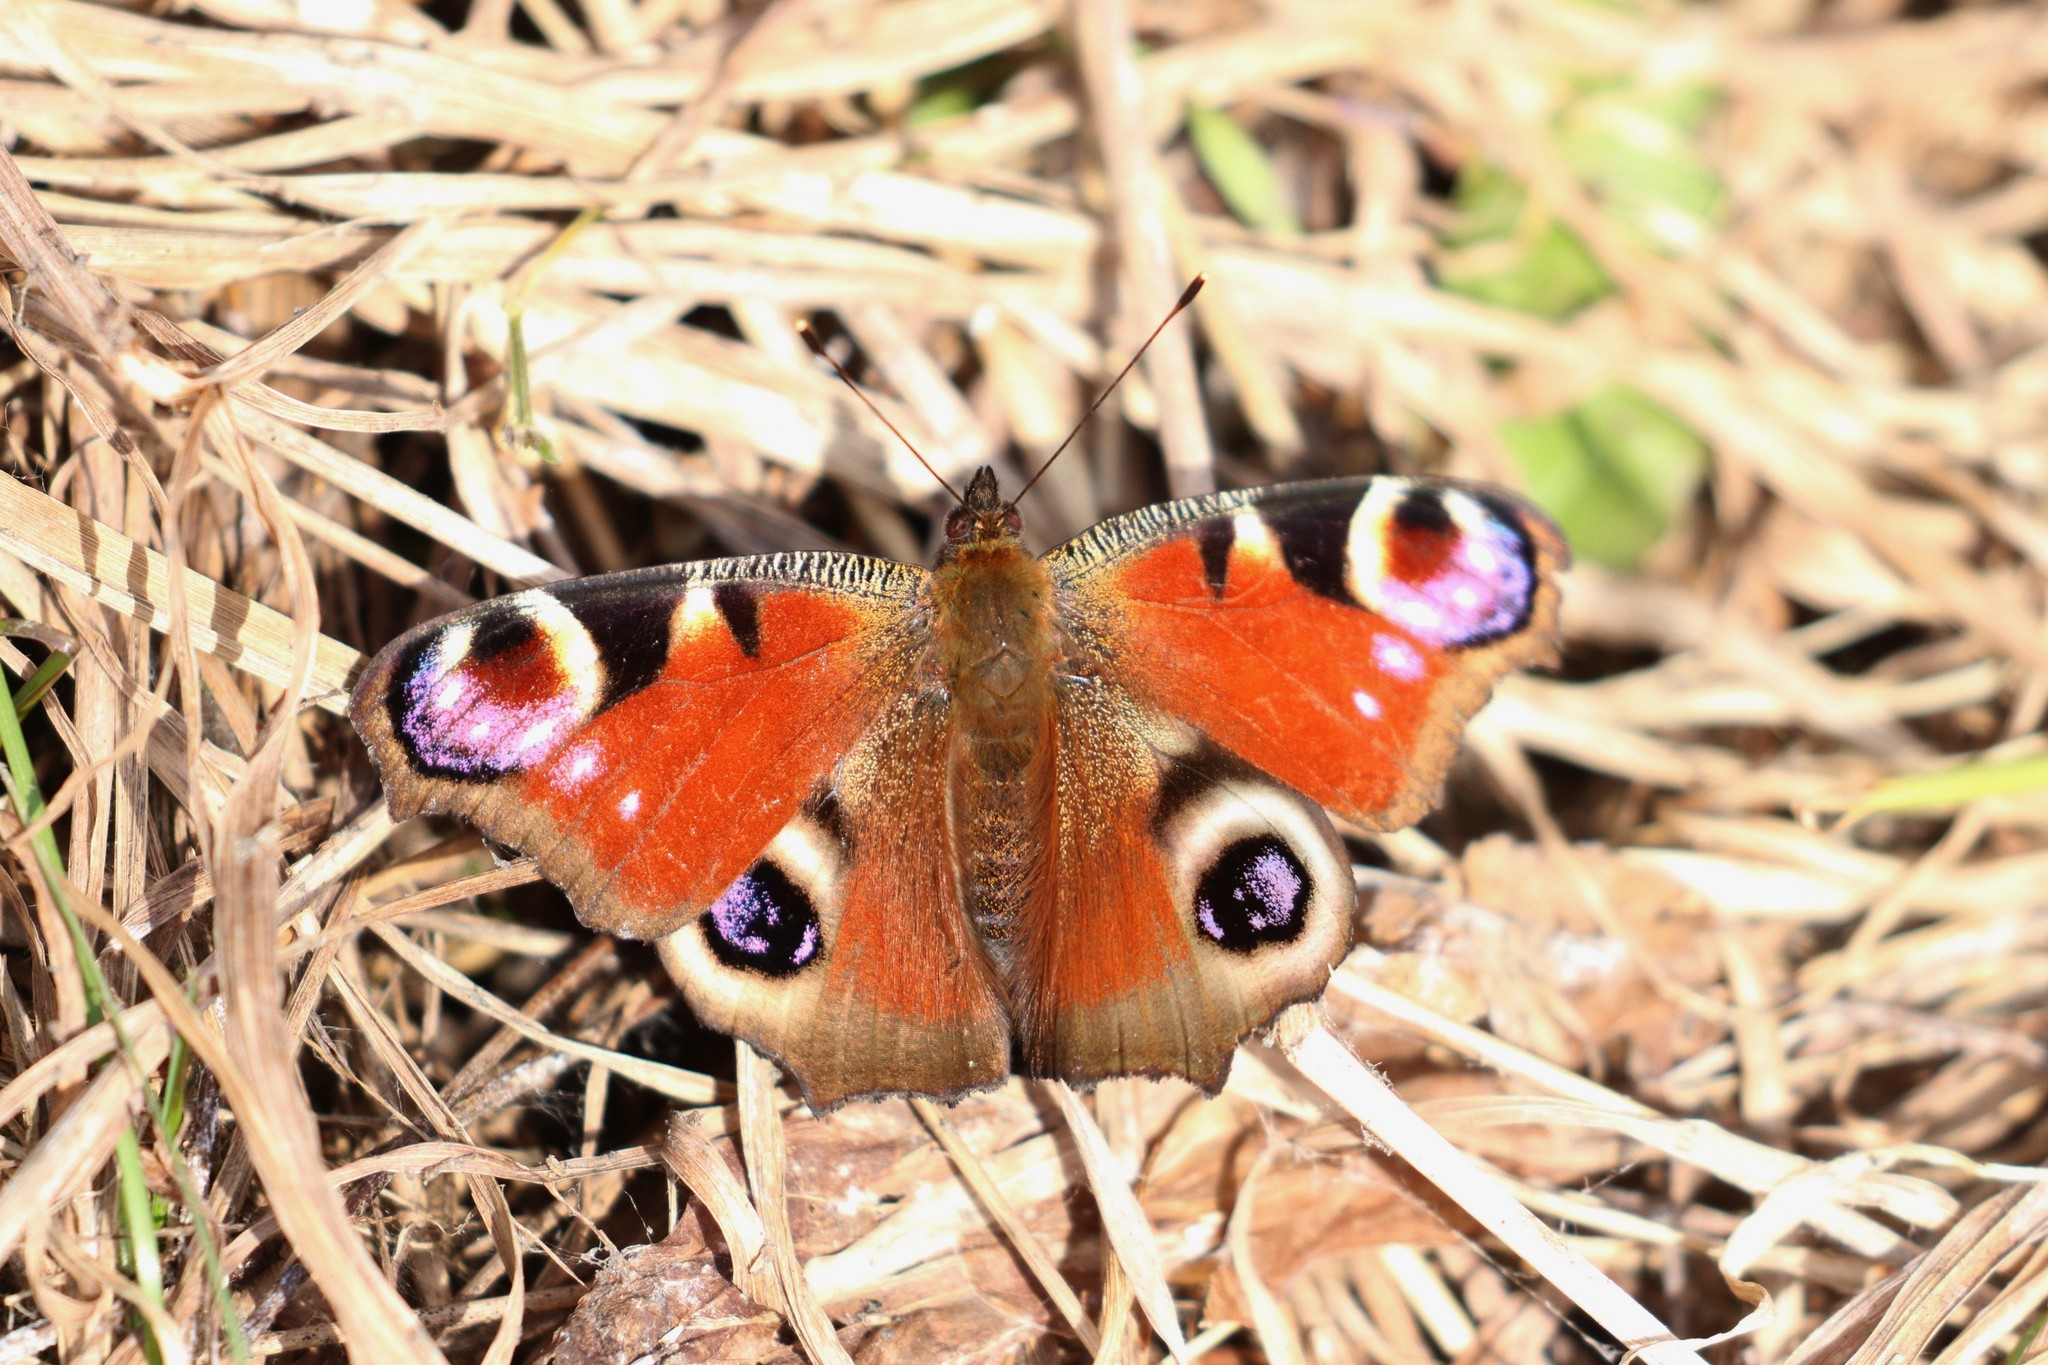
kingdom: Animalia
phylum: Arthropoda
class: Insecta
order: Lepidoptera
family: Nymphalidae
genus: Aglais
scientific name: Aglais io
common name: Peacock
